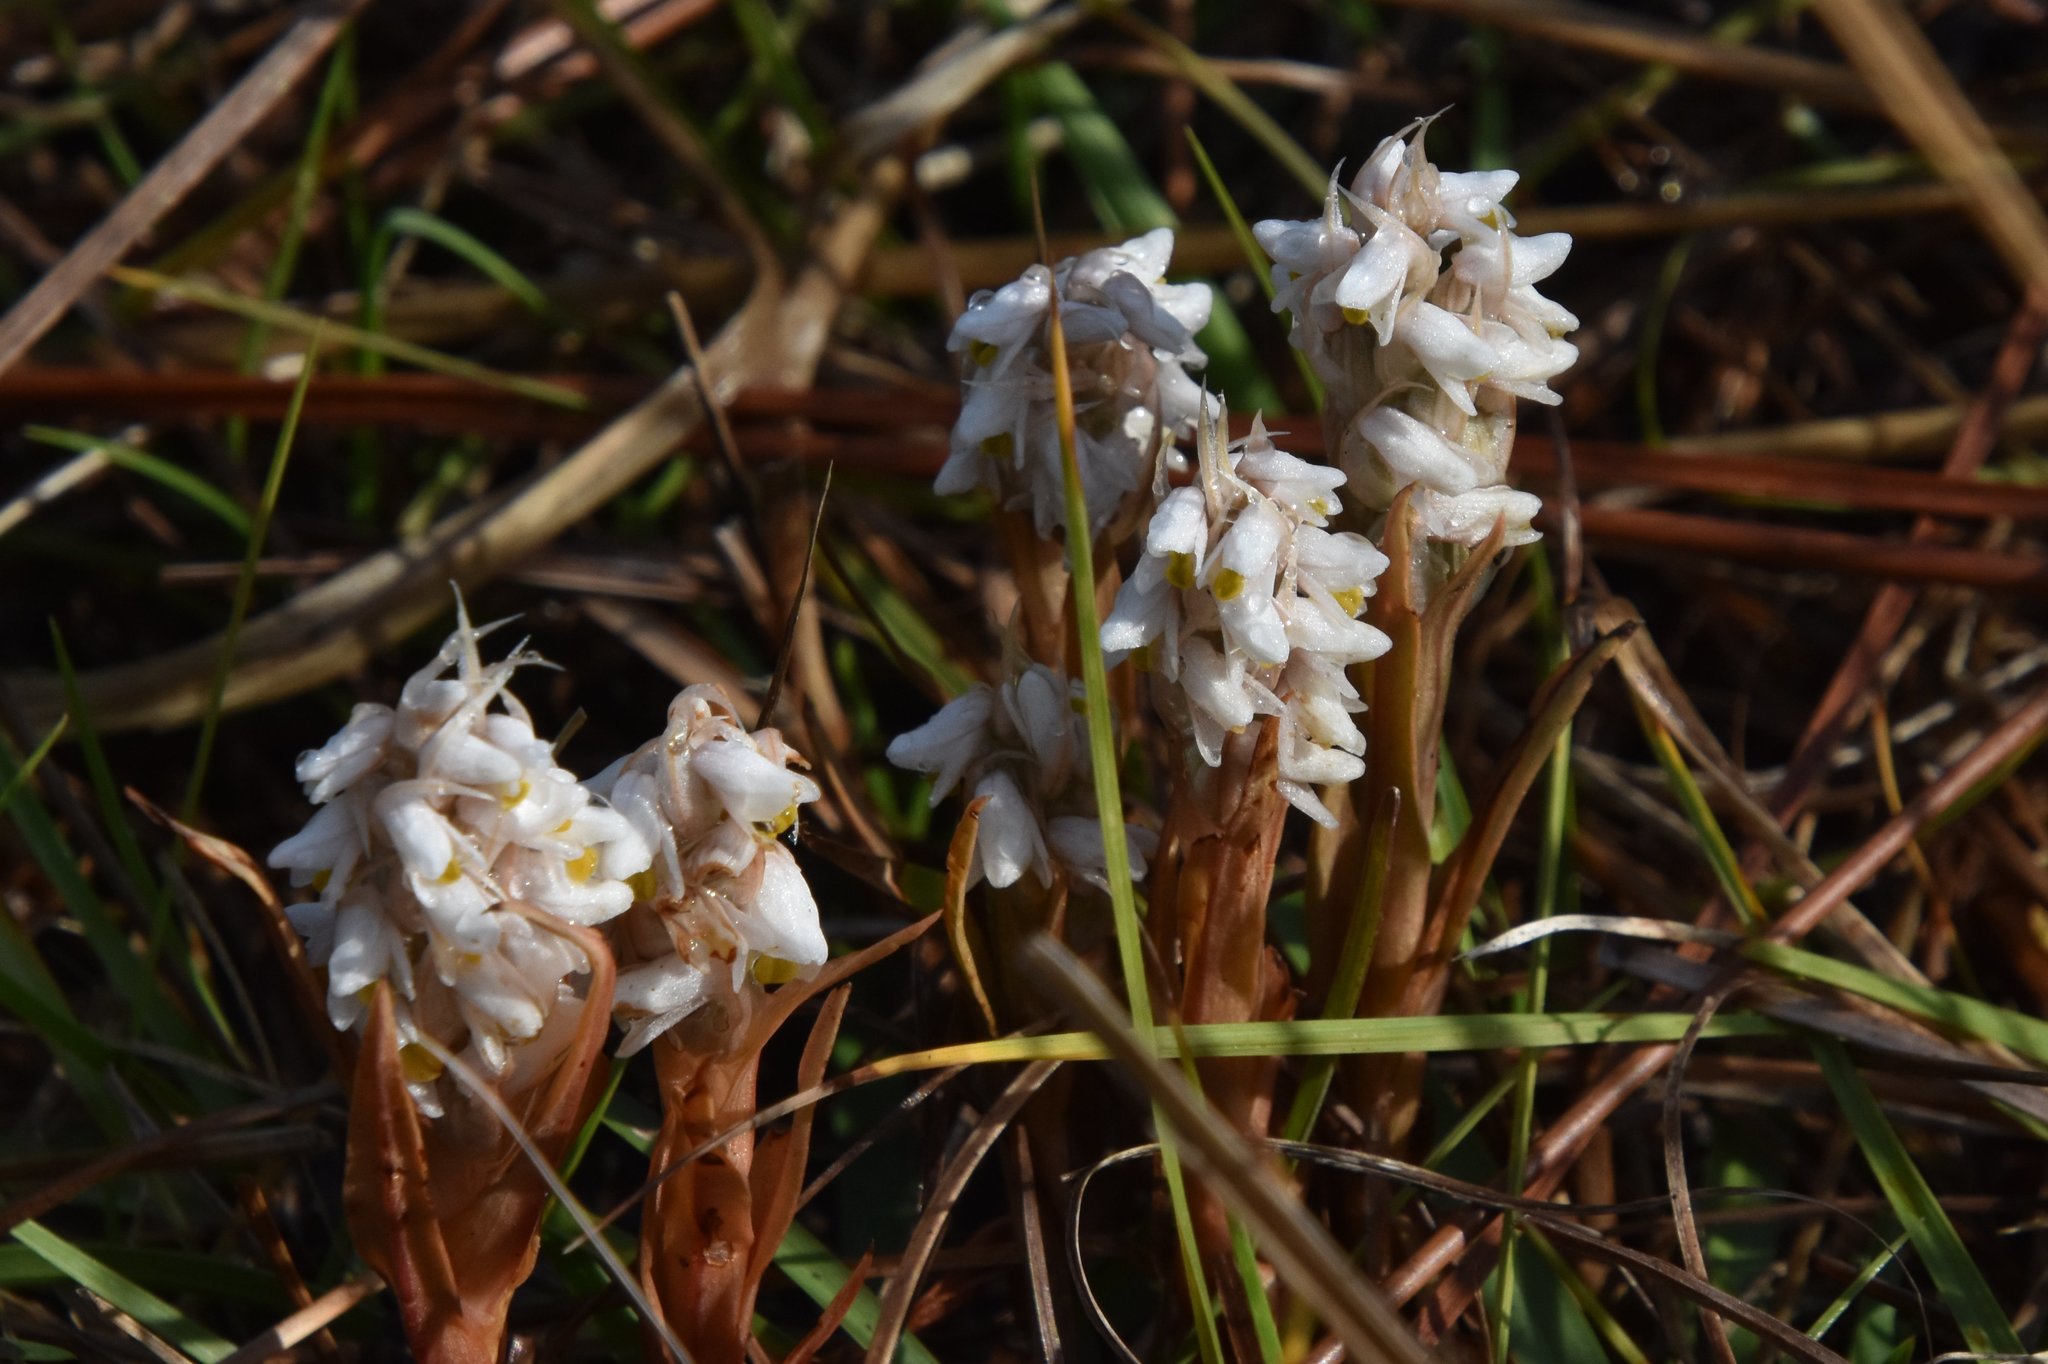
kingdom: Plantae
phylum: Tracheophyta
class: Liliopsida
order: Asparagales
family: Orchidaceae
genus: Zeuxine
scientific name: Zeuxine strateumatica
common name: Soldier's orchid
